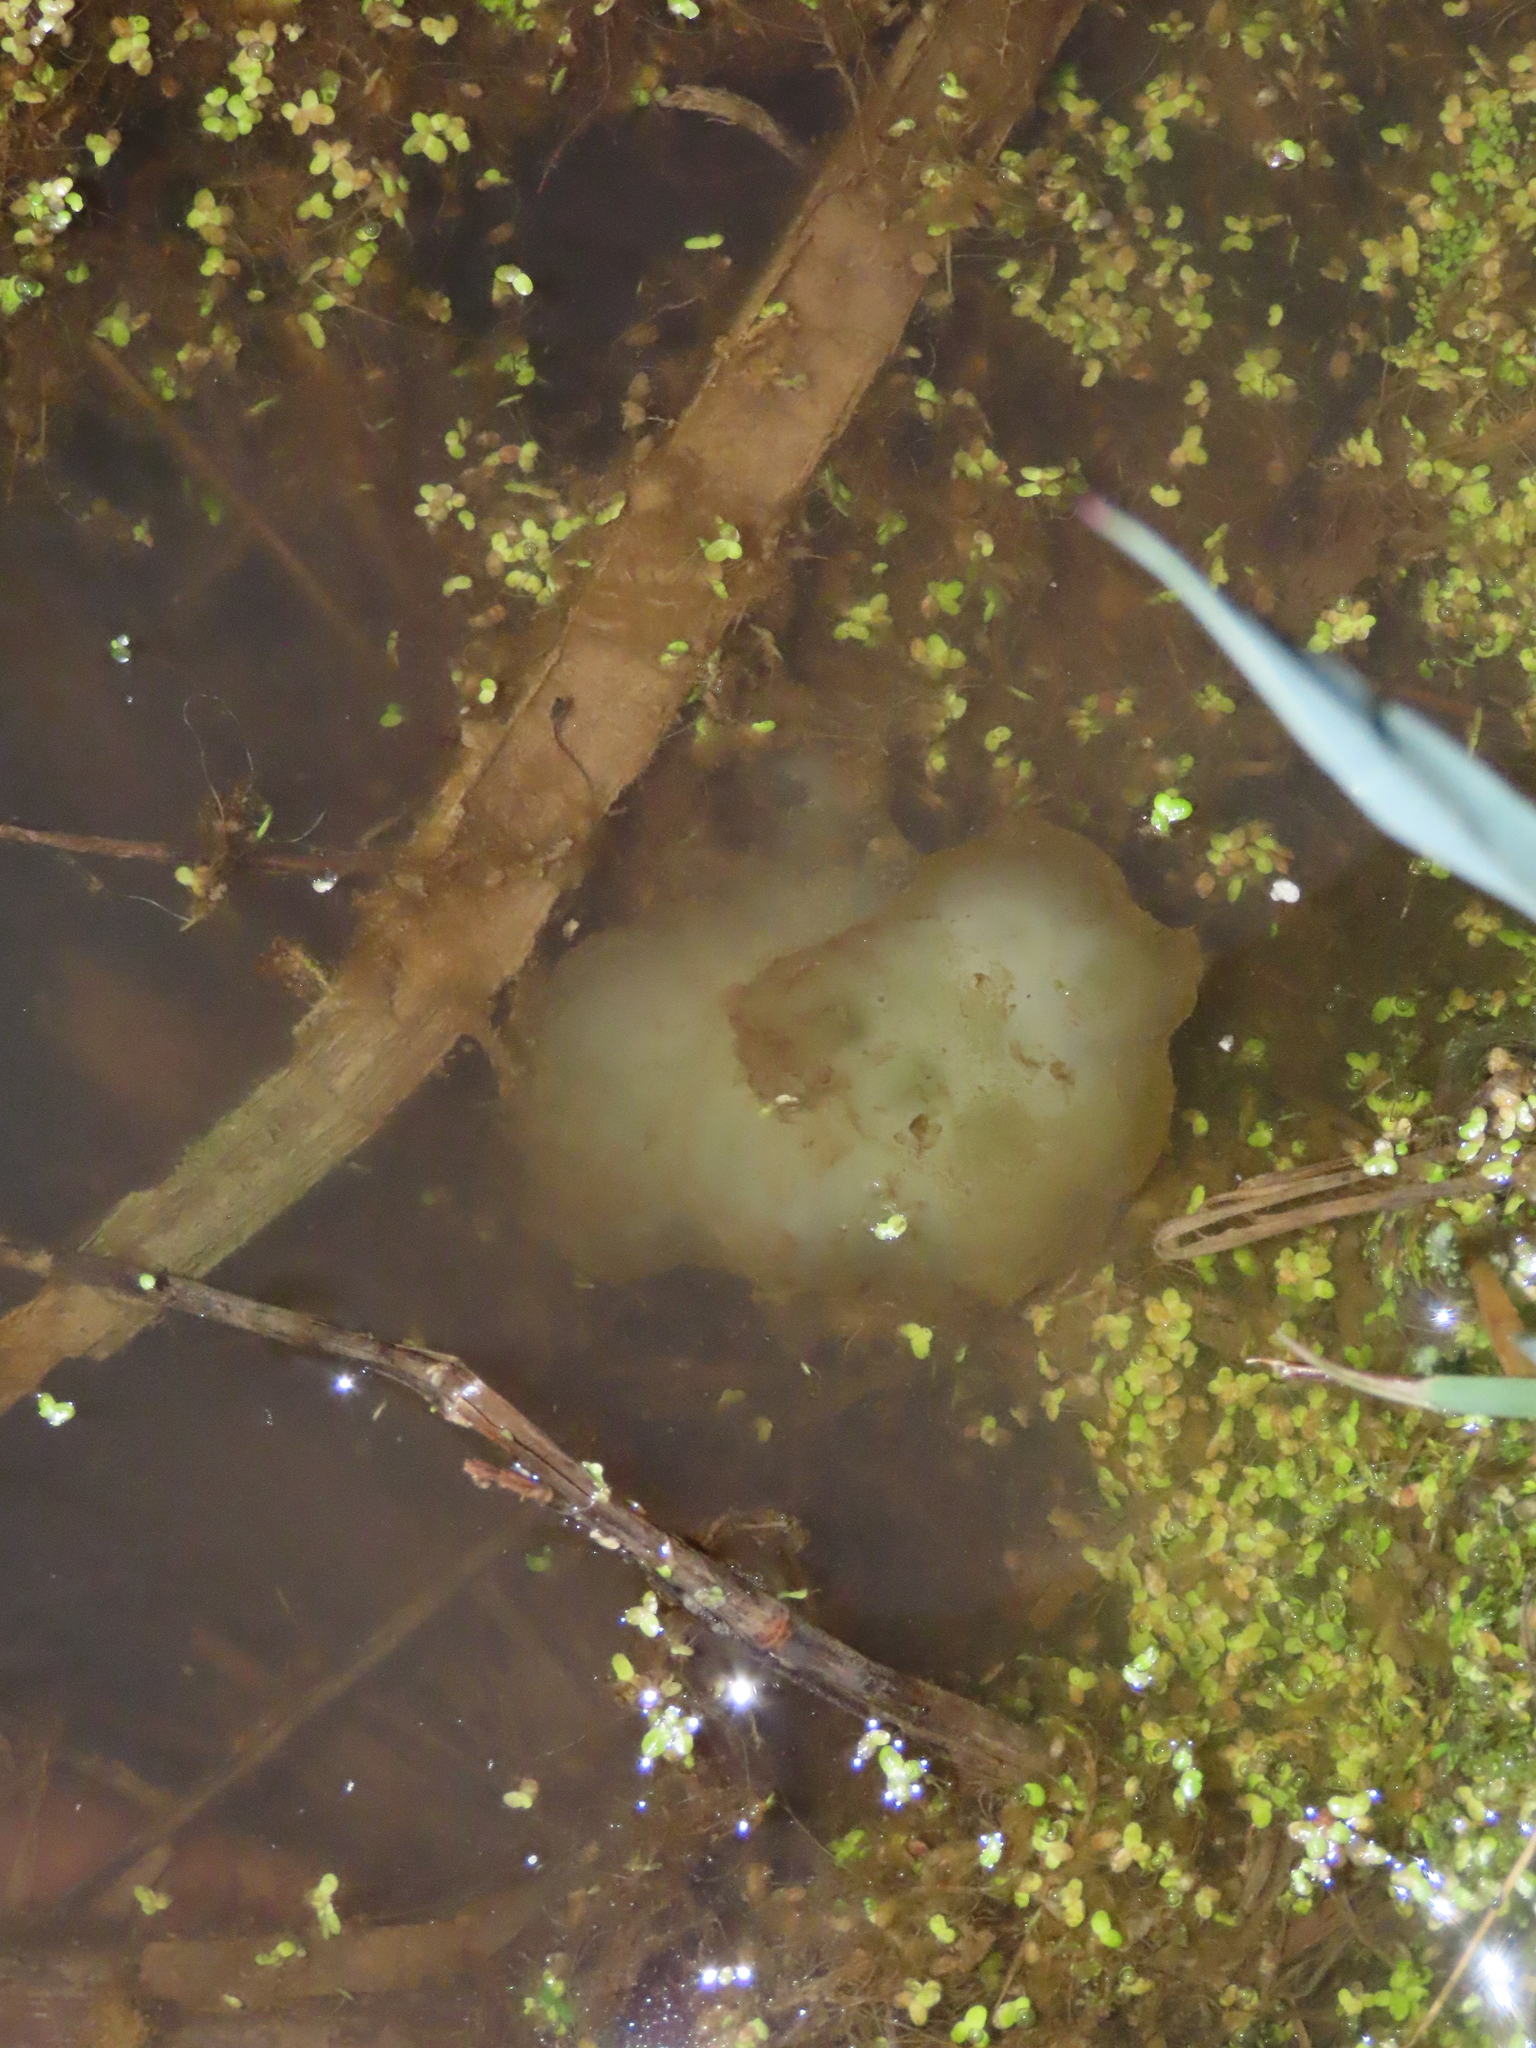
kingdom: Animalia
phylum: Chordata
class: Amphibia
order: Caudata
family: Ambystomatidae
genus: Ambystoma
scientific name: Ambystoma maculatum
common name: Spotted salamander
